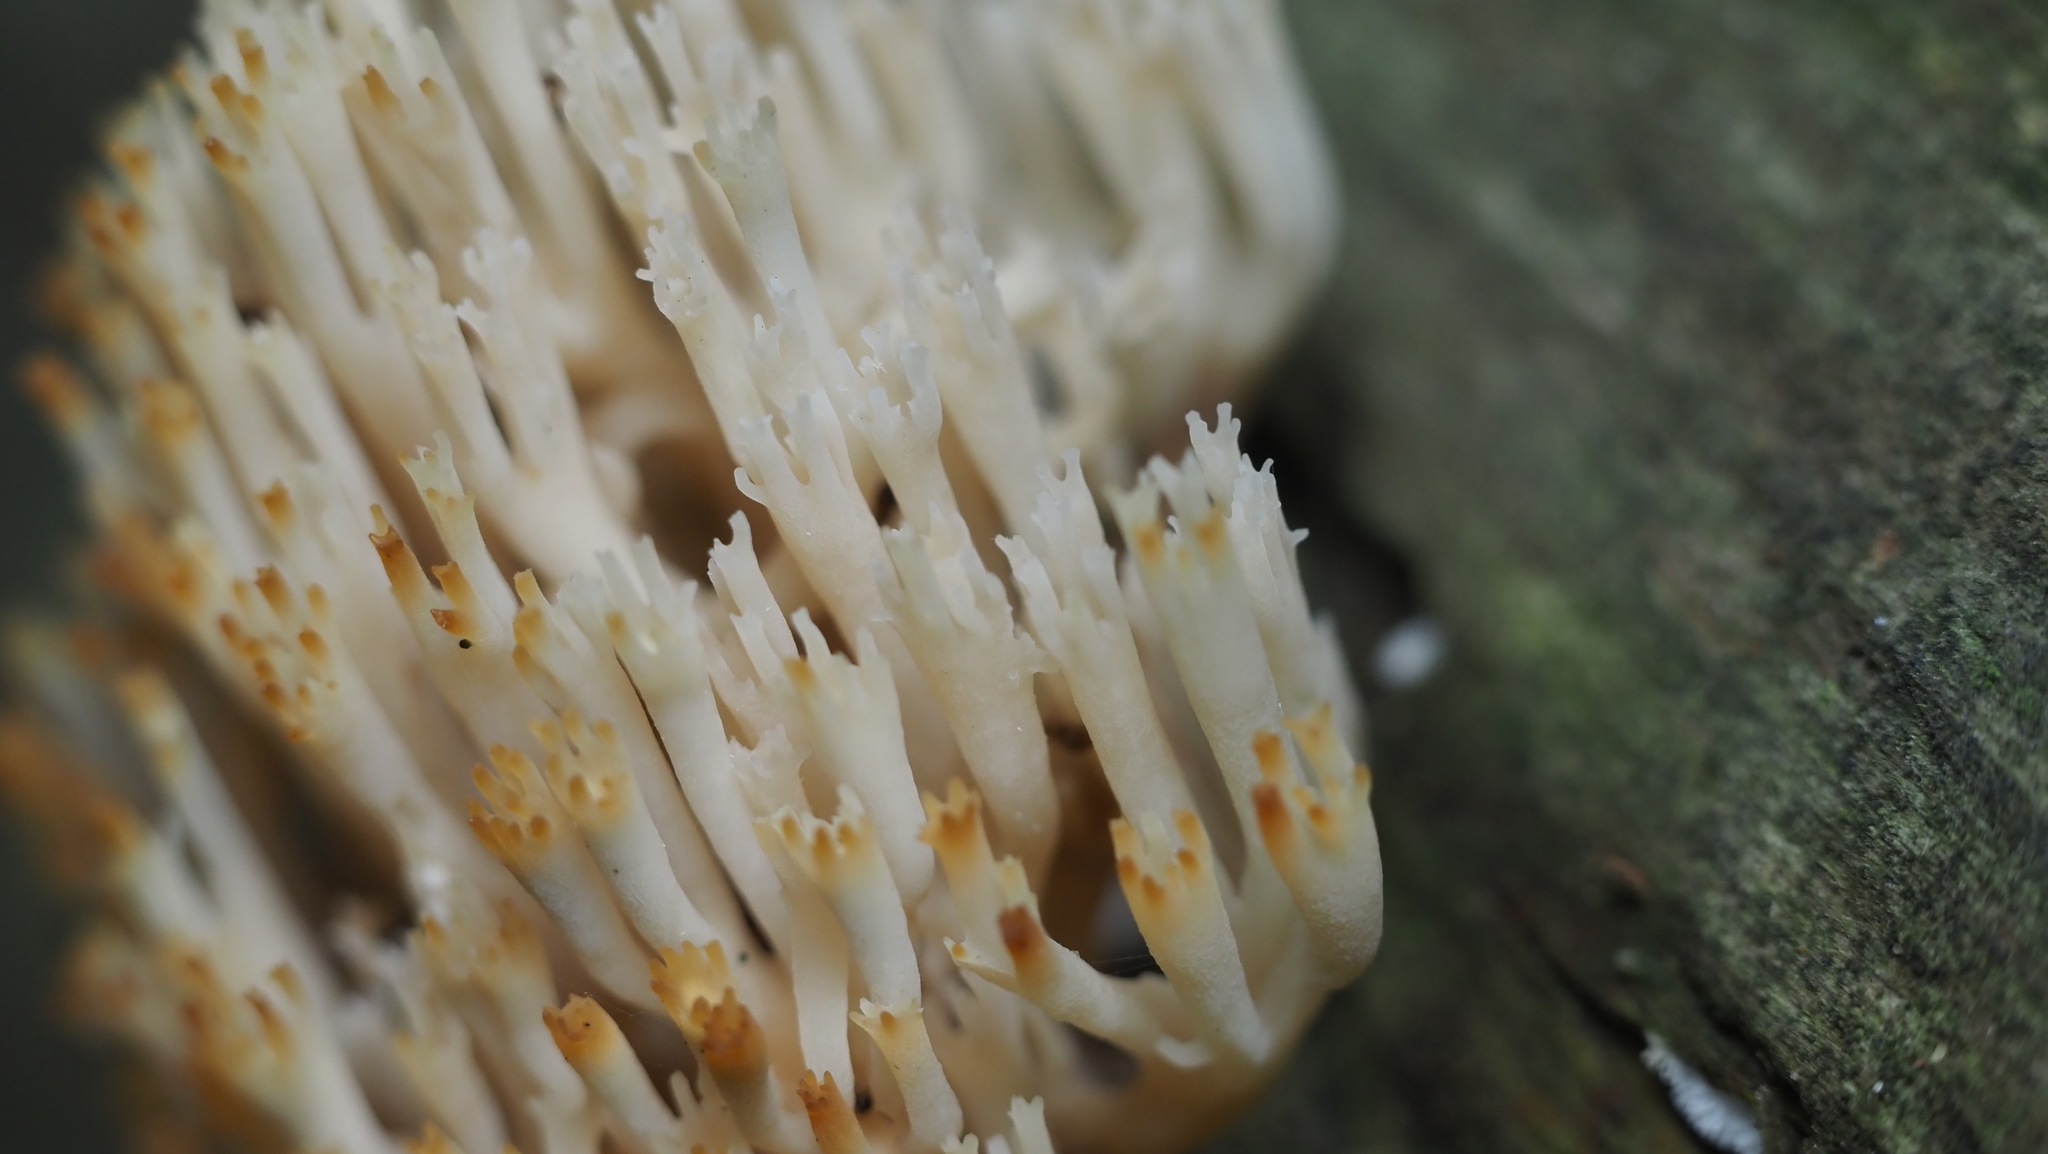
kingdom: Fungi
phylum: Basidiomycota
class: Agaricomycetes
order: Russulales
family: Auriscalpiaceae
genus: Artomyces
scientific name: Artomyces pyxidatus
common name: Crown-tipped coral fungus
